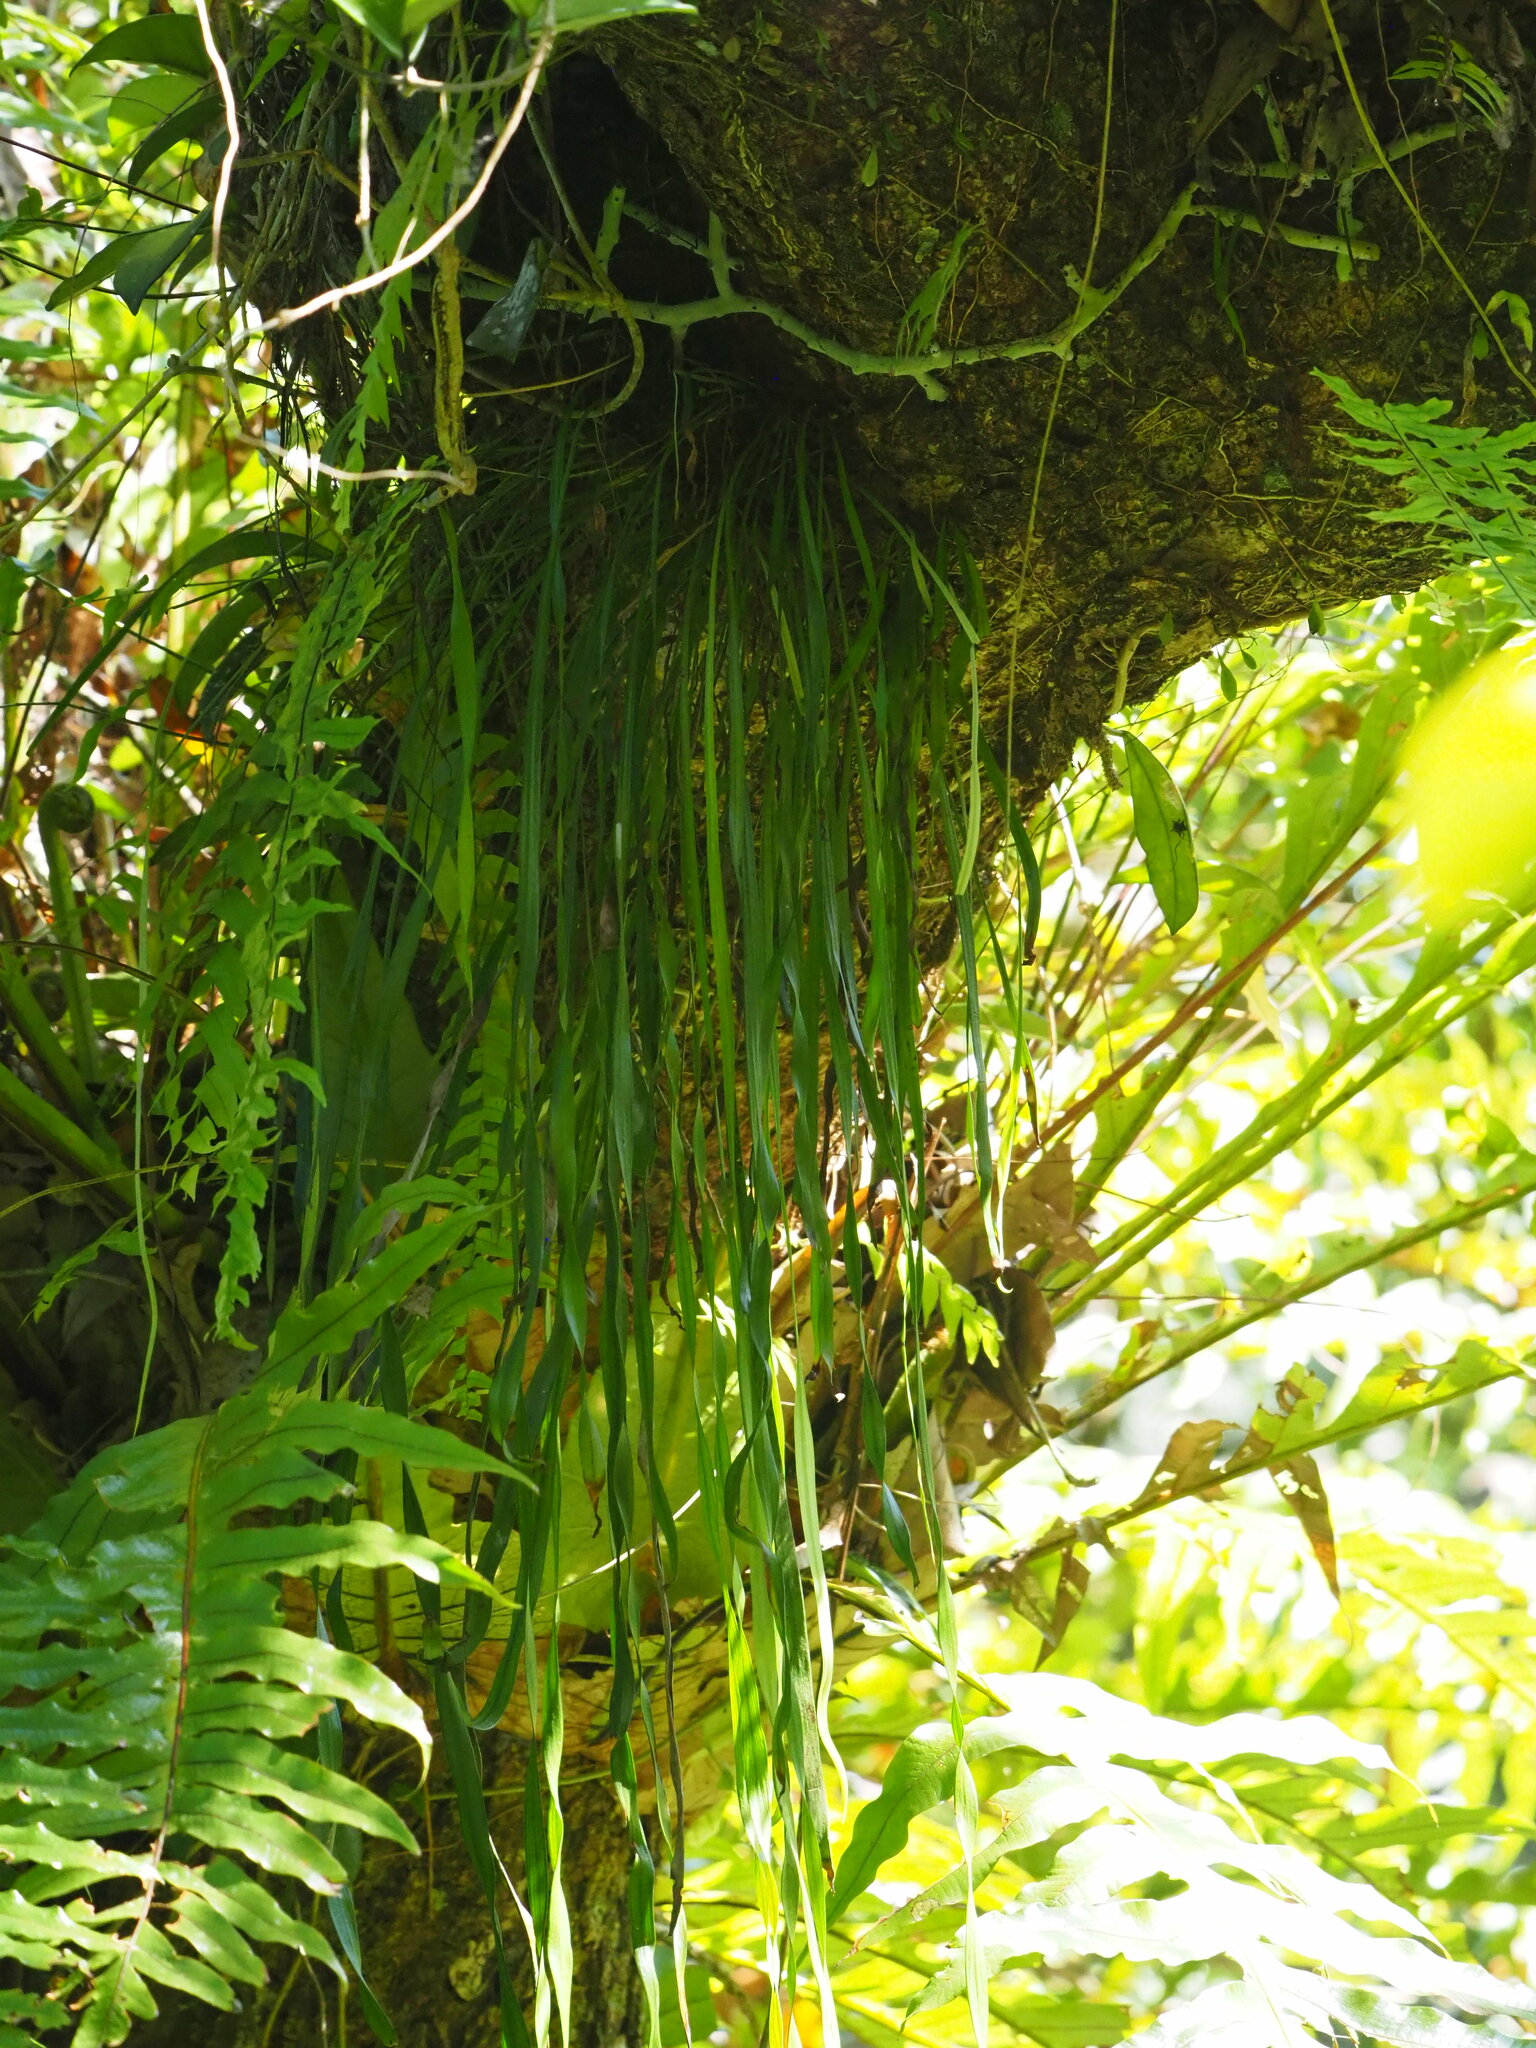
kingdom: Plantae
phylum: Tracheophyta
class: Polypodiopsida
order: Polypodiales
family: Pteridaceae
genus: Haplopteris
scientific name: Haplopteris elongata
